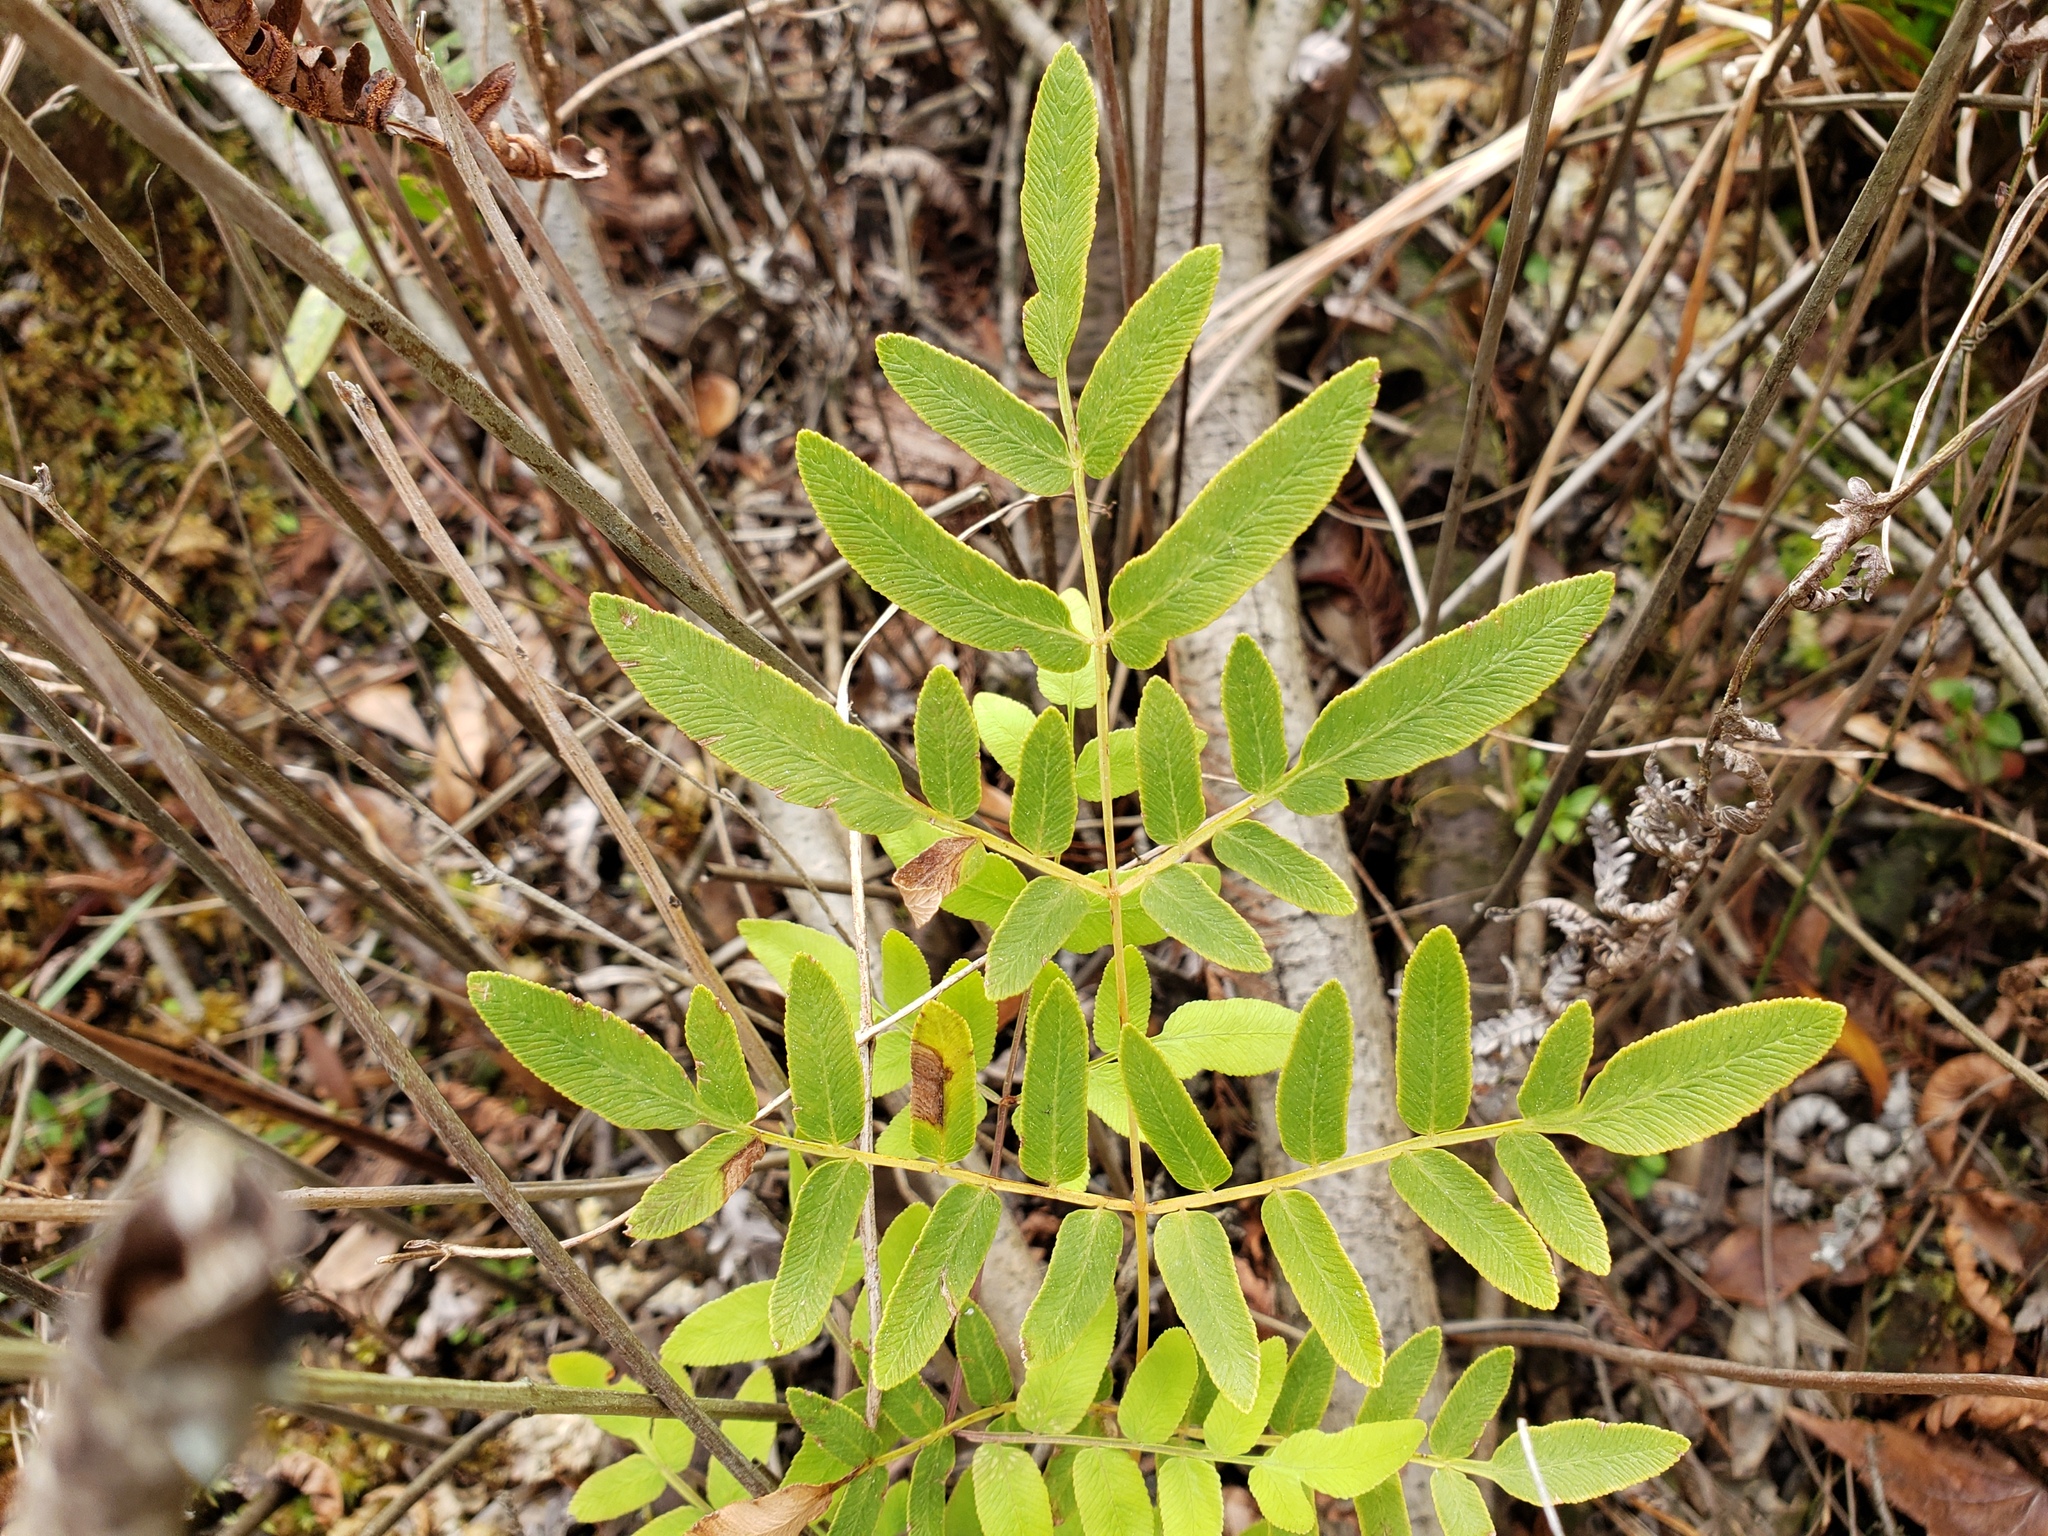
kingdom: Plantae
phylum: Tracheophyta
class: Polypodiopsida
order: Osmundales
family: Osmundaceae
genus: Osmunda
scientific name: Osmunda spectabilis
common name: American royal fern
